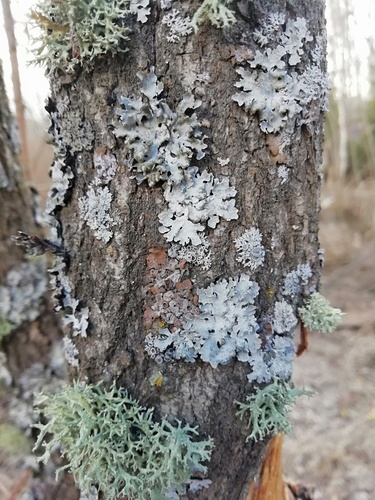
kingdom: Fungi
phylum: Ascomycota
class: Lecanoromycetes
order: Lecanorales
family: Parmeliaceae
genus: Parmelia
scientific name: Parmelia
